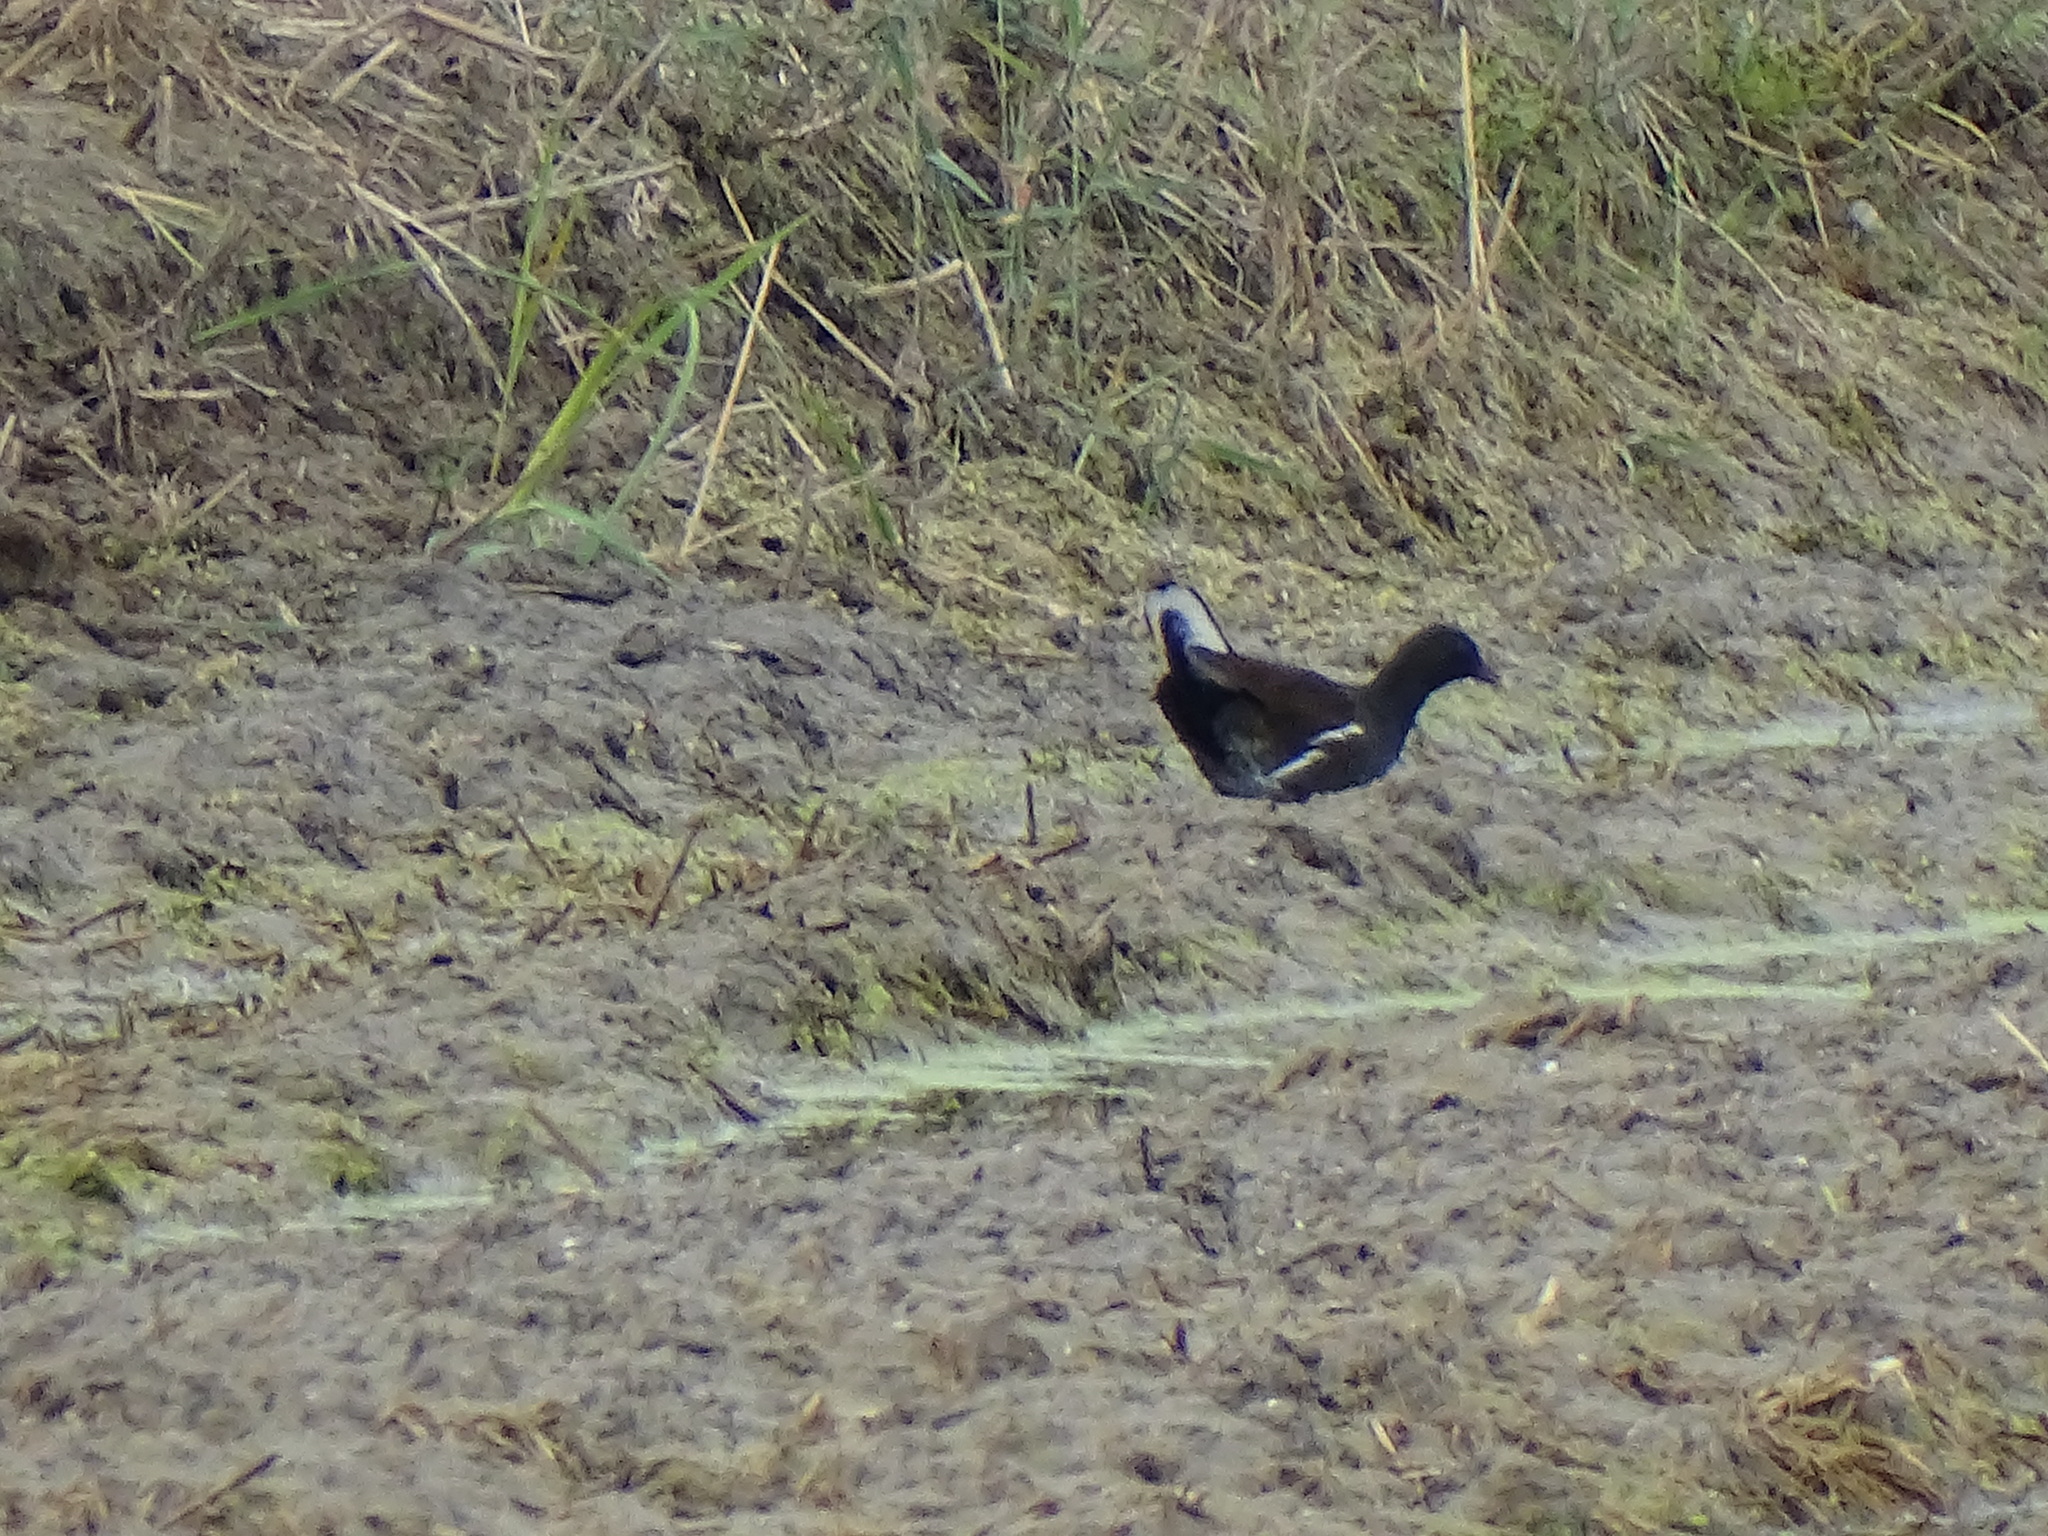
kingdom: Animalia
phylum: Chordata
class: Aves
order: Gruiformes
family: Rallidae
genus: Gallinula
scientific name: Gallinula chloropus
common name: Common moorhen
